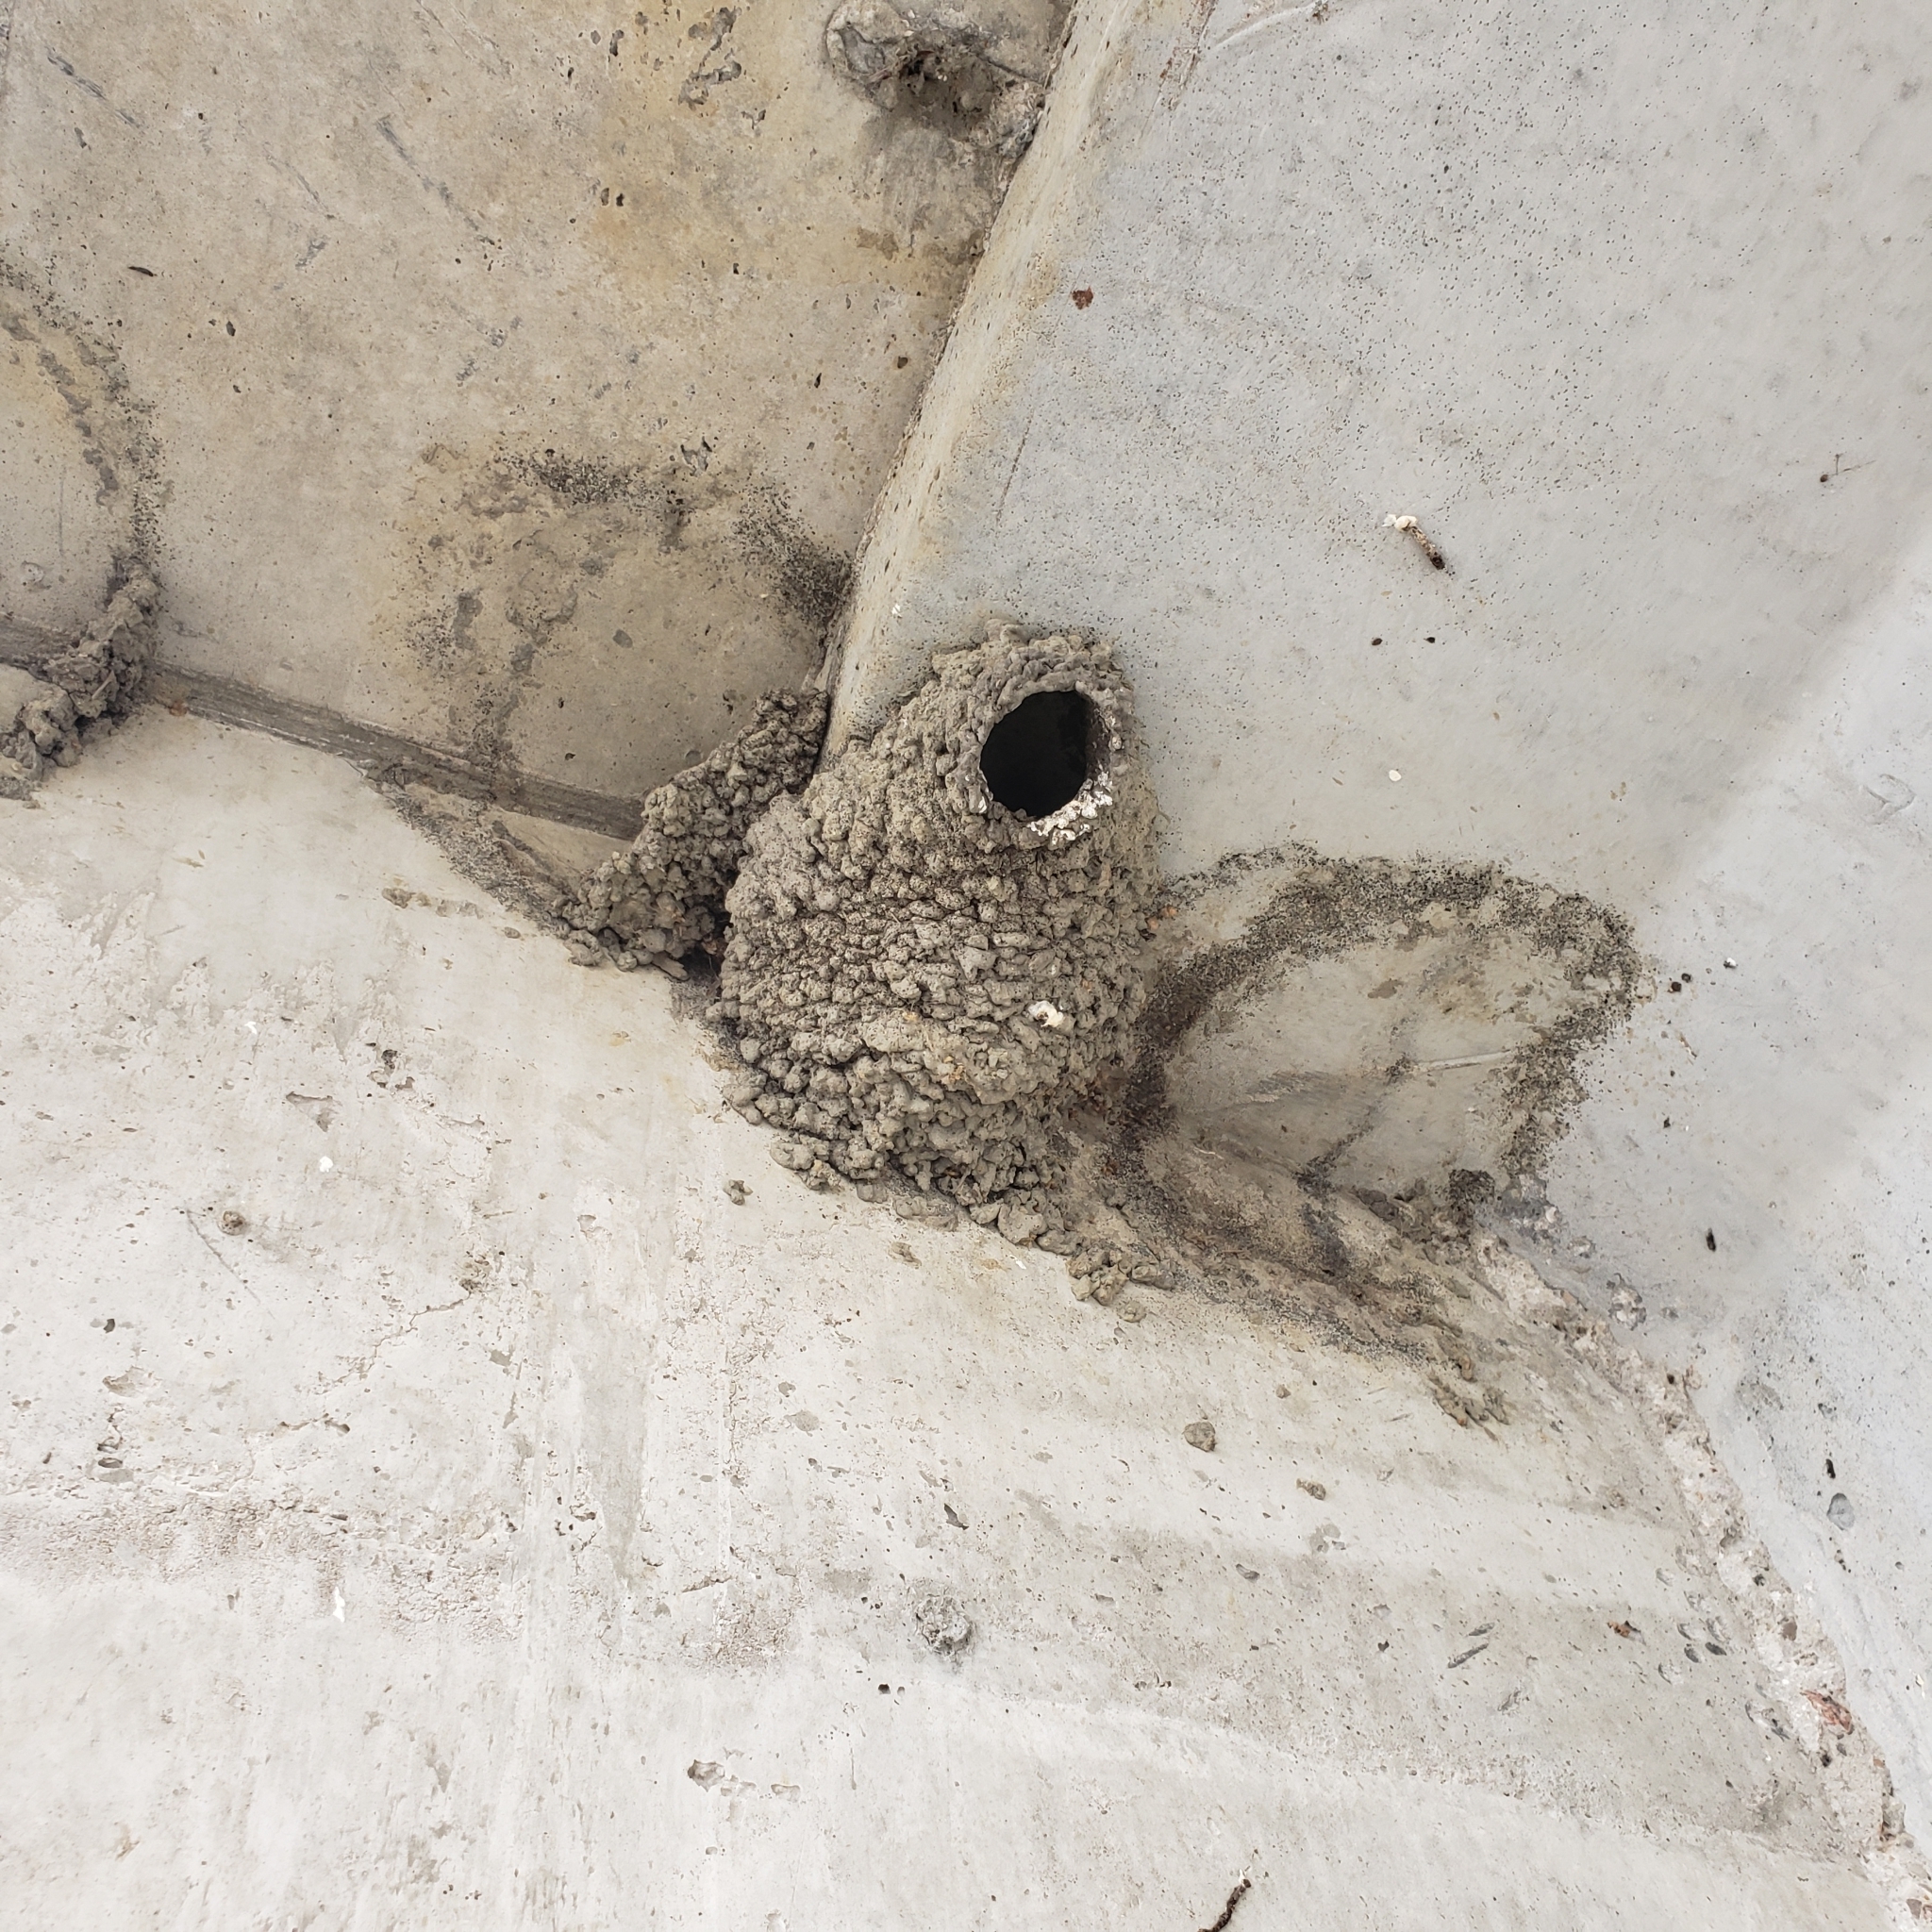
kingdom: Animalia
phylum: Chordata
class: Aves
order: Passeriformes
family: Hirundinidae
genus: Petrochelidon
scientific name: Petrochelidon pyrrhonota
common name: American cliff swallow
